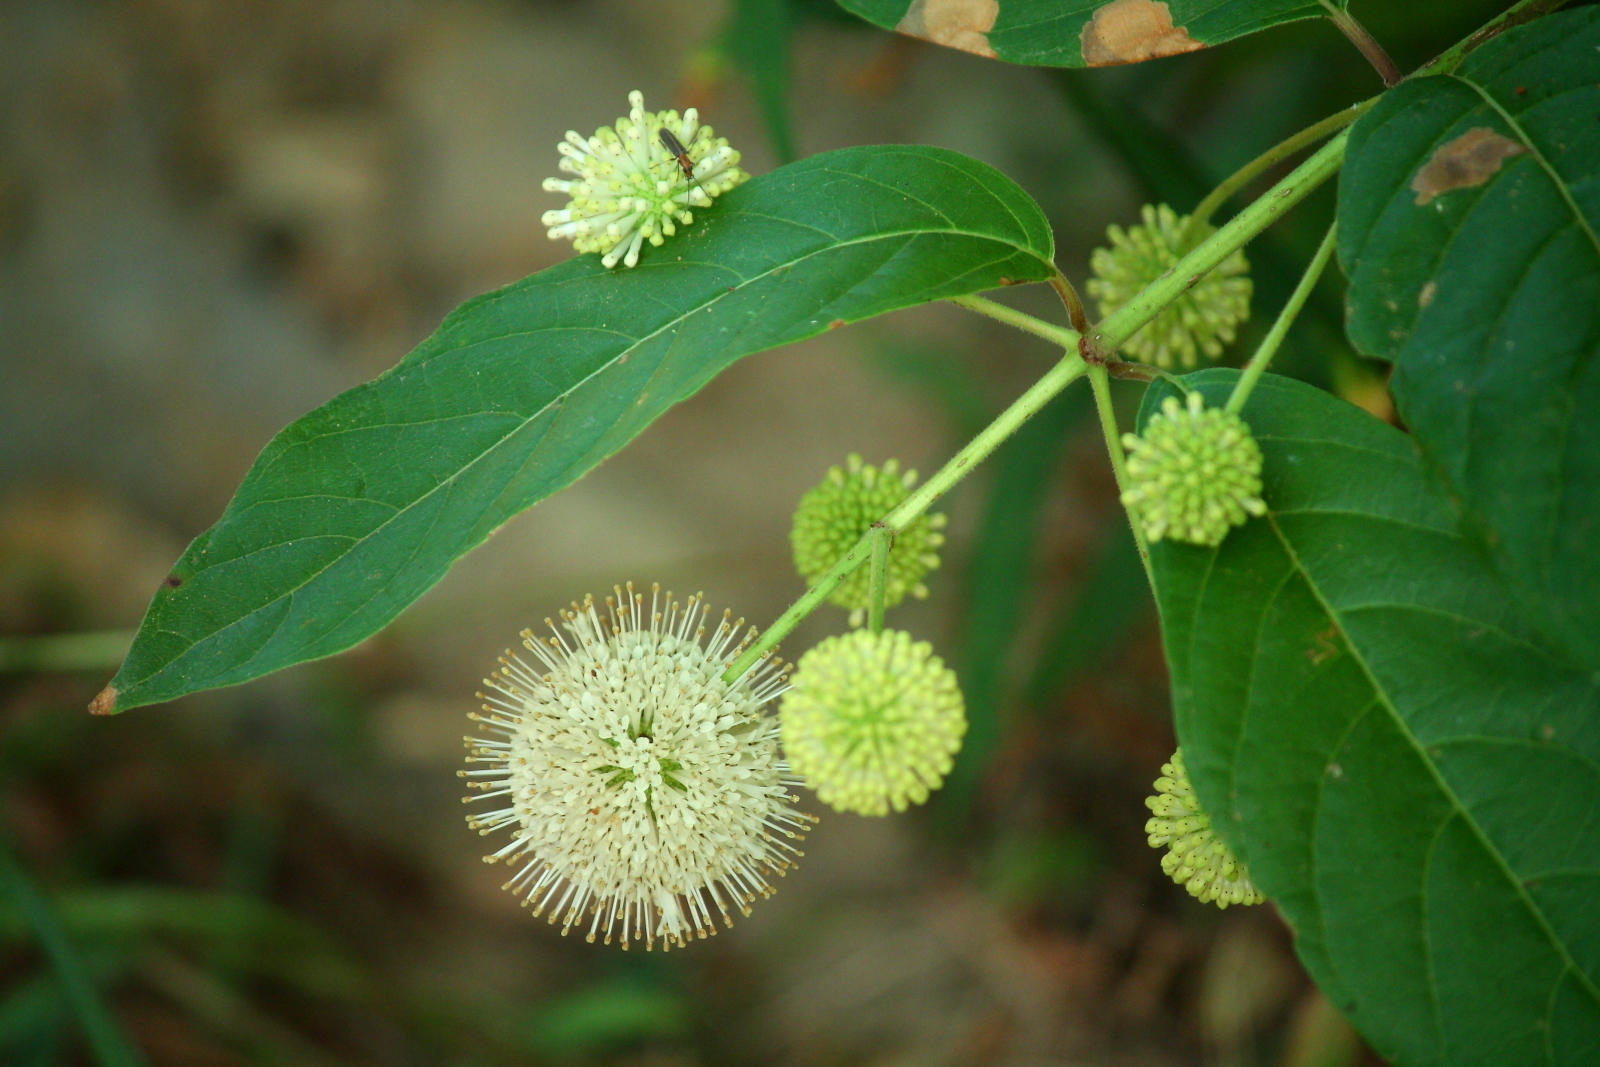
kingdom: Plantae
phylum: Tracheophyta
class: Magnoliopsida
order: Gentianales
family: Rubiaceae
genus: Cephalanthus
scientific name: Cephalanthus occidentalis
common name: Button-willow
